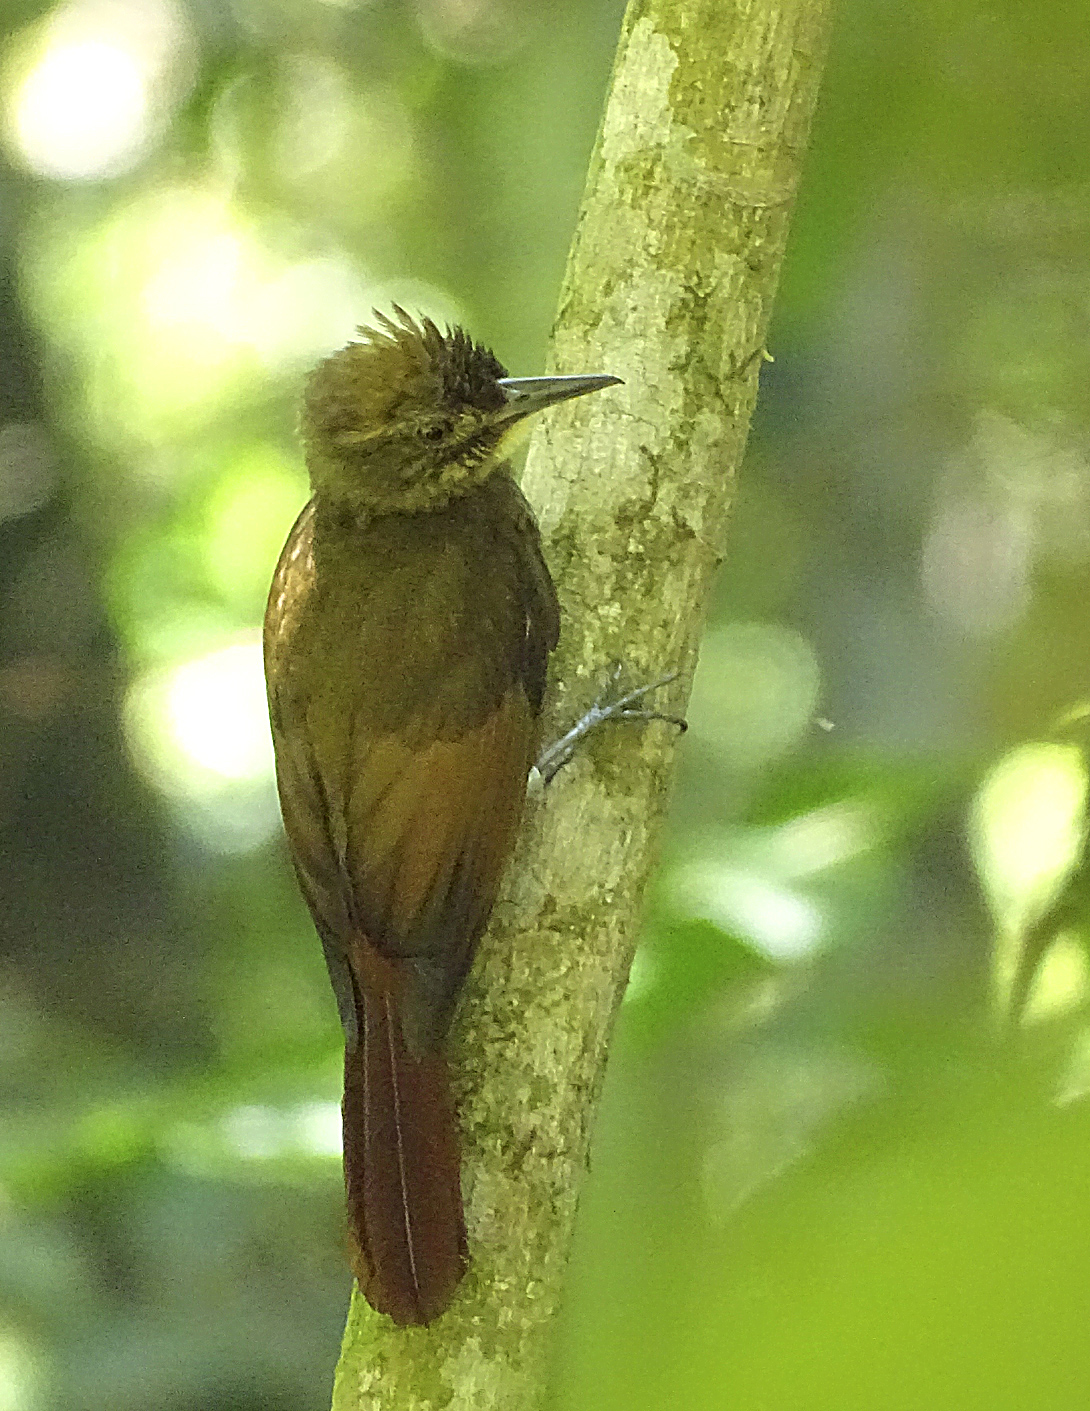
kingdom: Animalia
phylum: Chordata
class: Aves
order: Passeriformes
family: Furnariidae
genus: Dendrocincla
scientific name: Dendrocincla anabatina
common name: Tawny-winged woodcreeper
